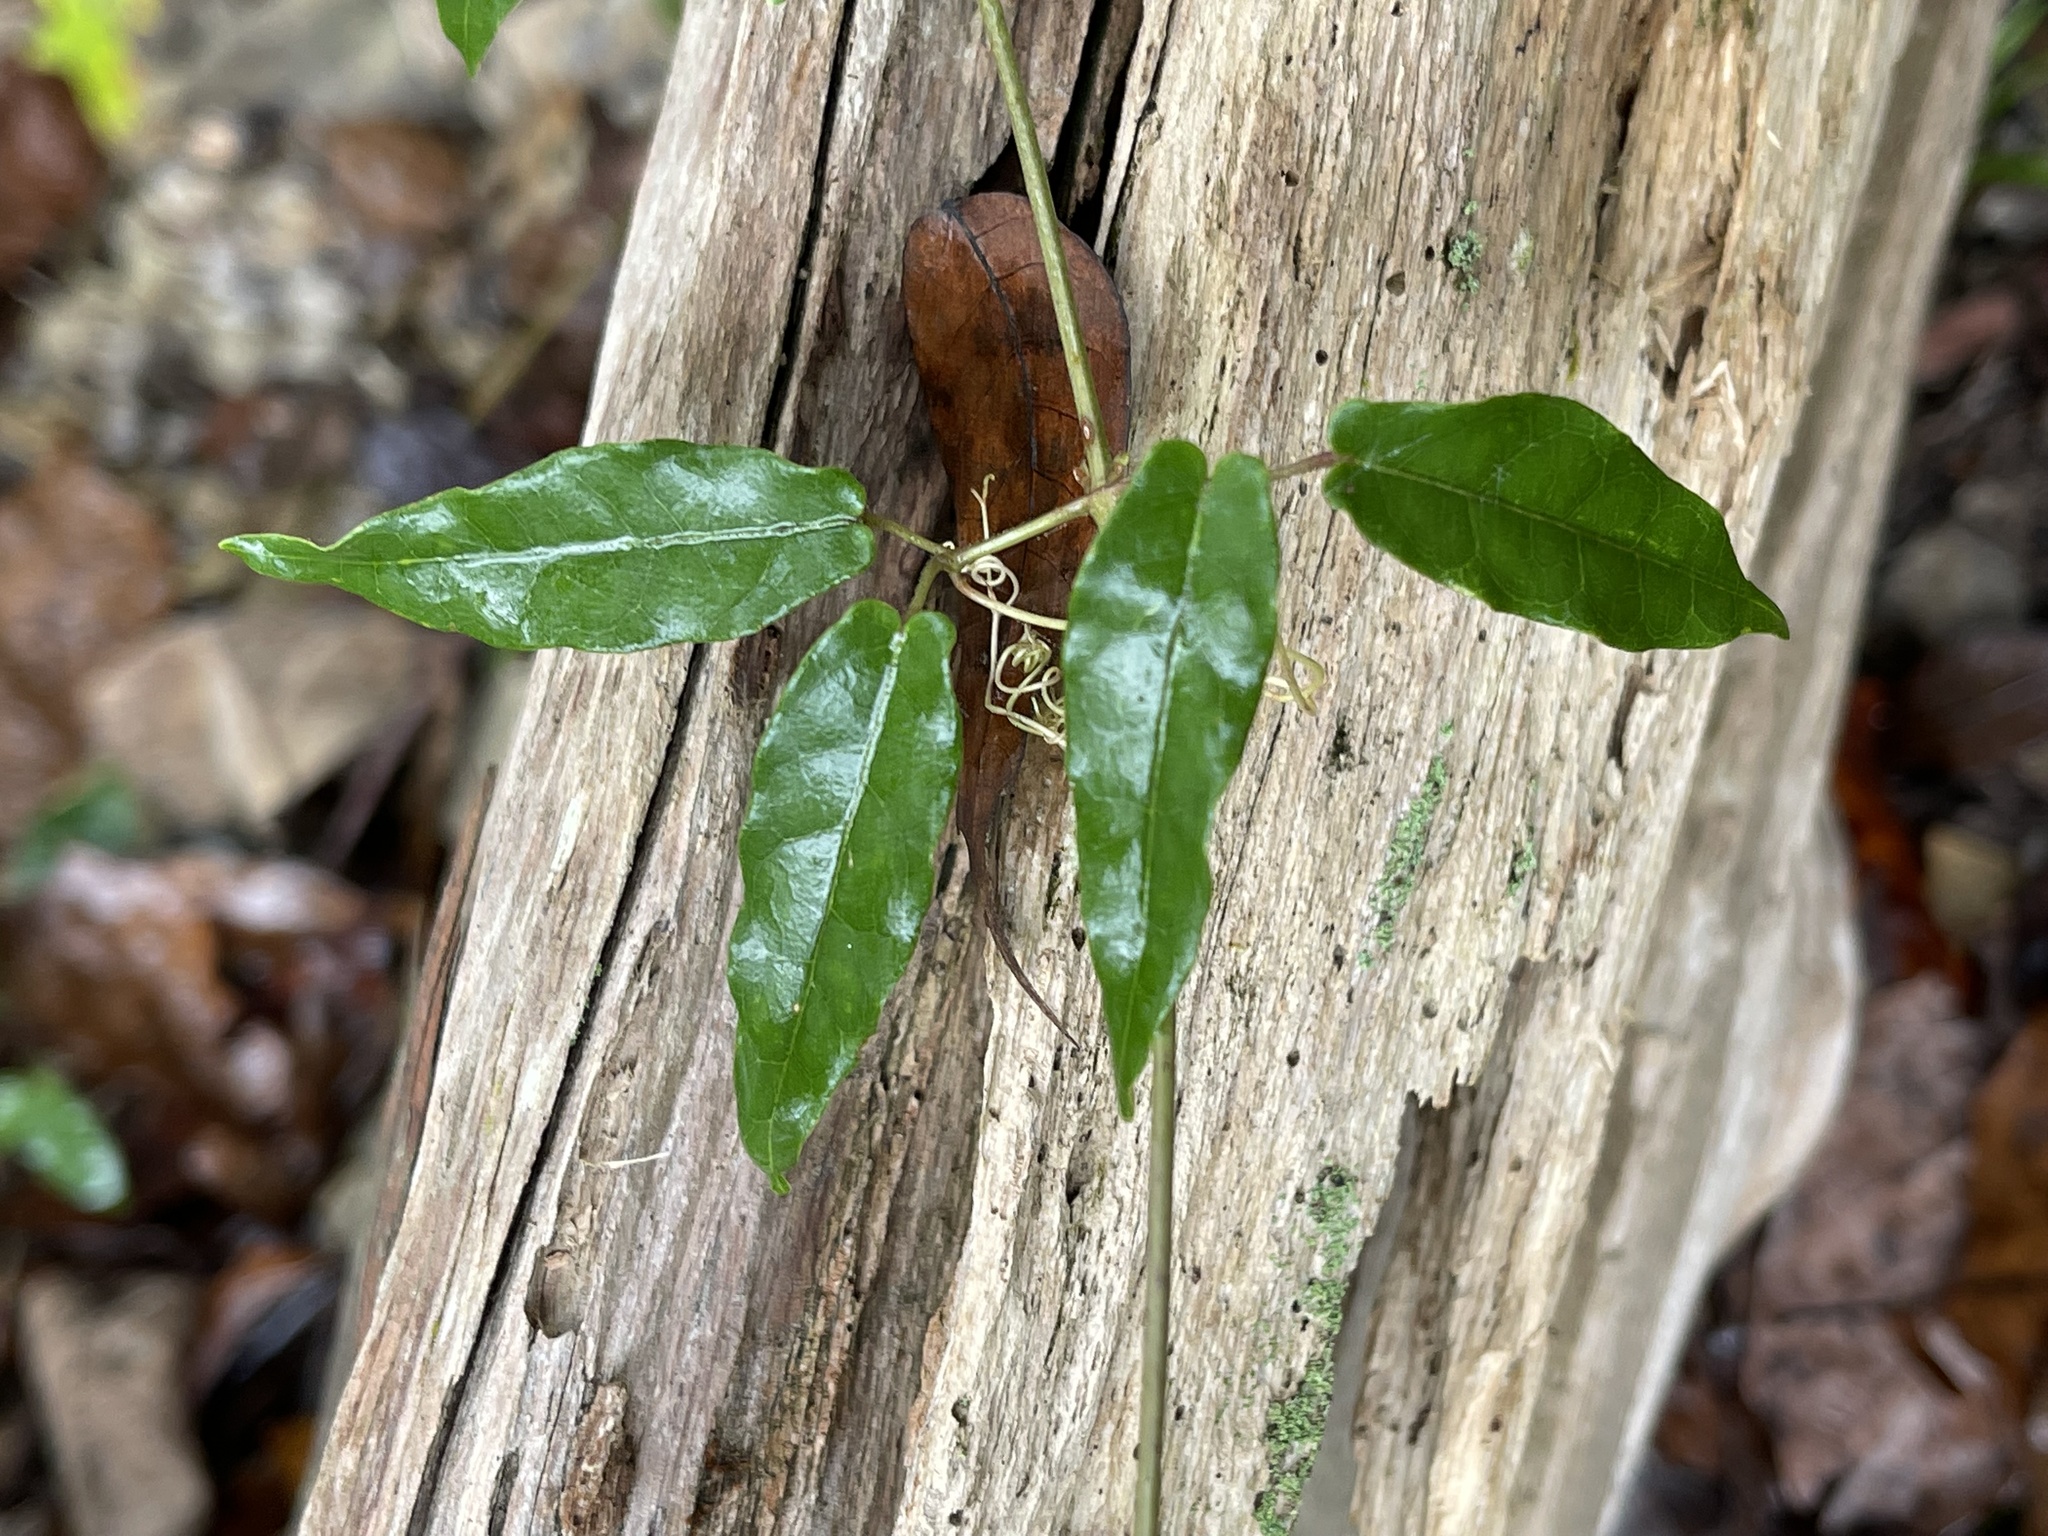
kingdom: Plantae
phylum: Tracheophyta
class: Magnoliopsida
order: Lamiales
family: Bignoniaceae
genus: Bignonia
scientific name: Bignonia capreolata
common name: Crossvine
